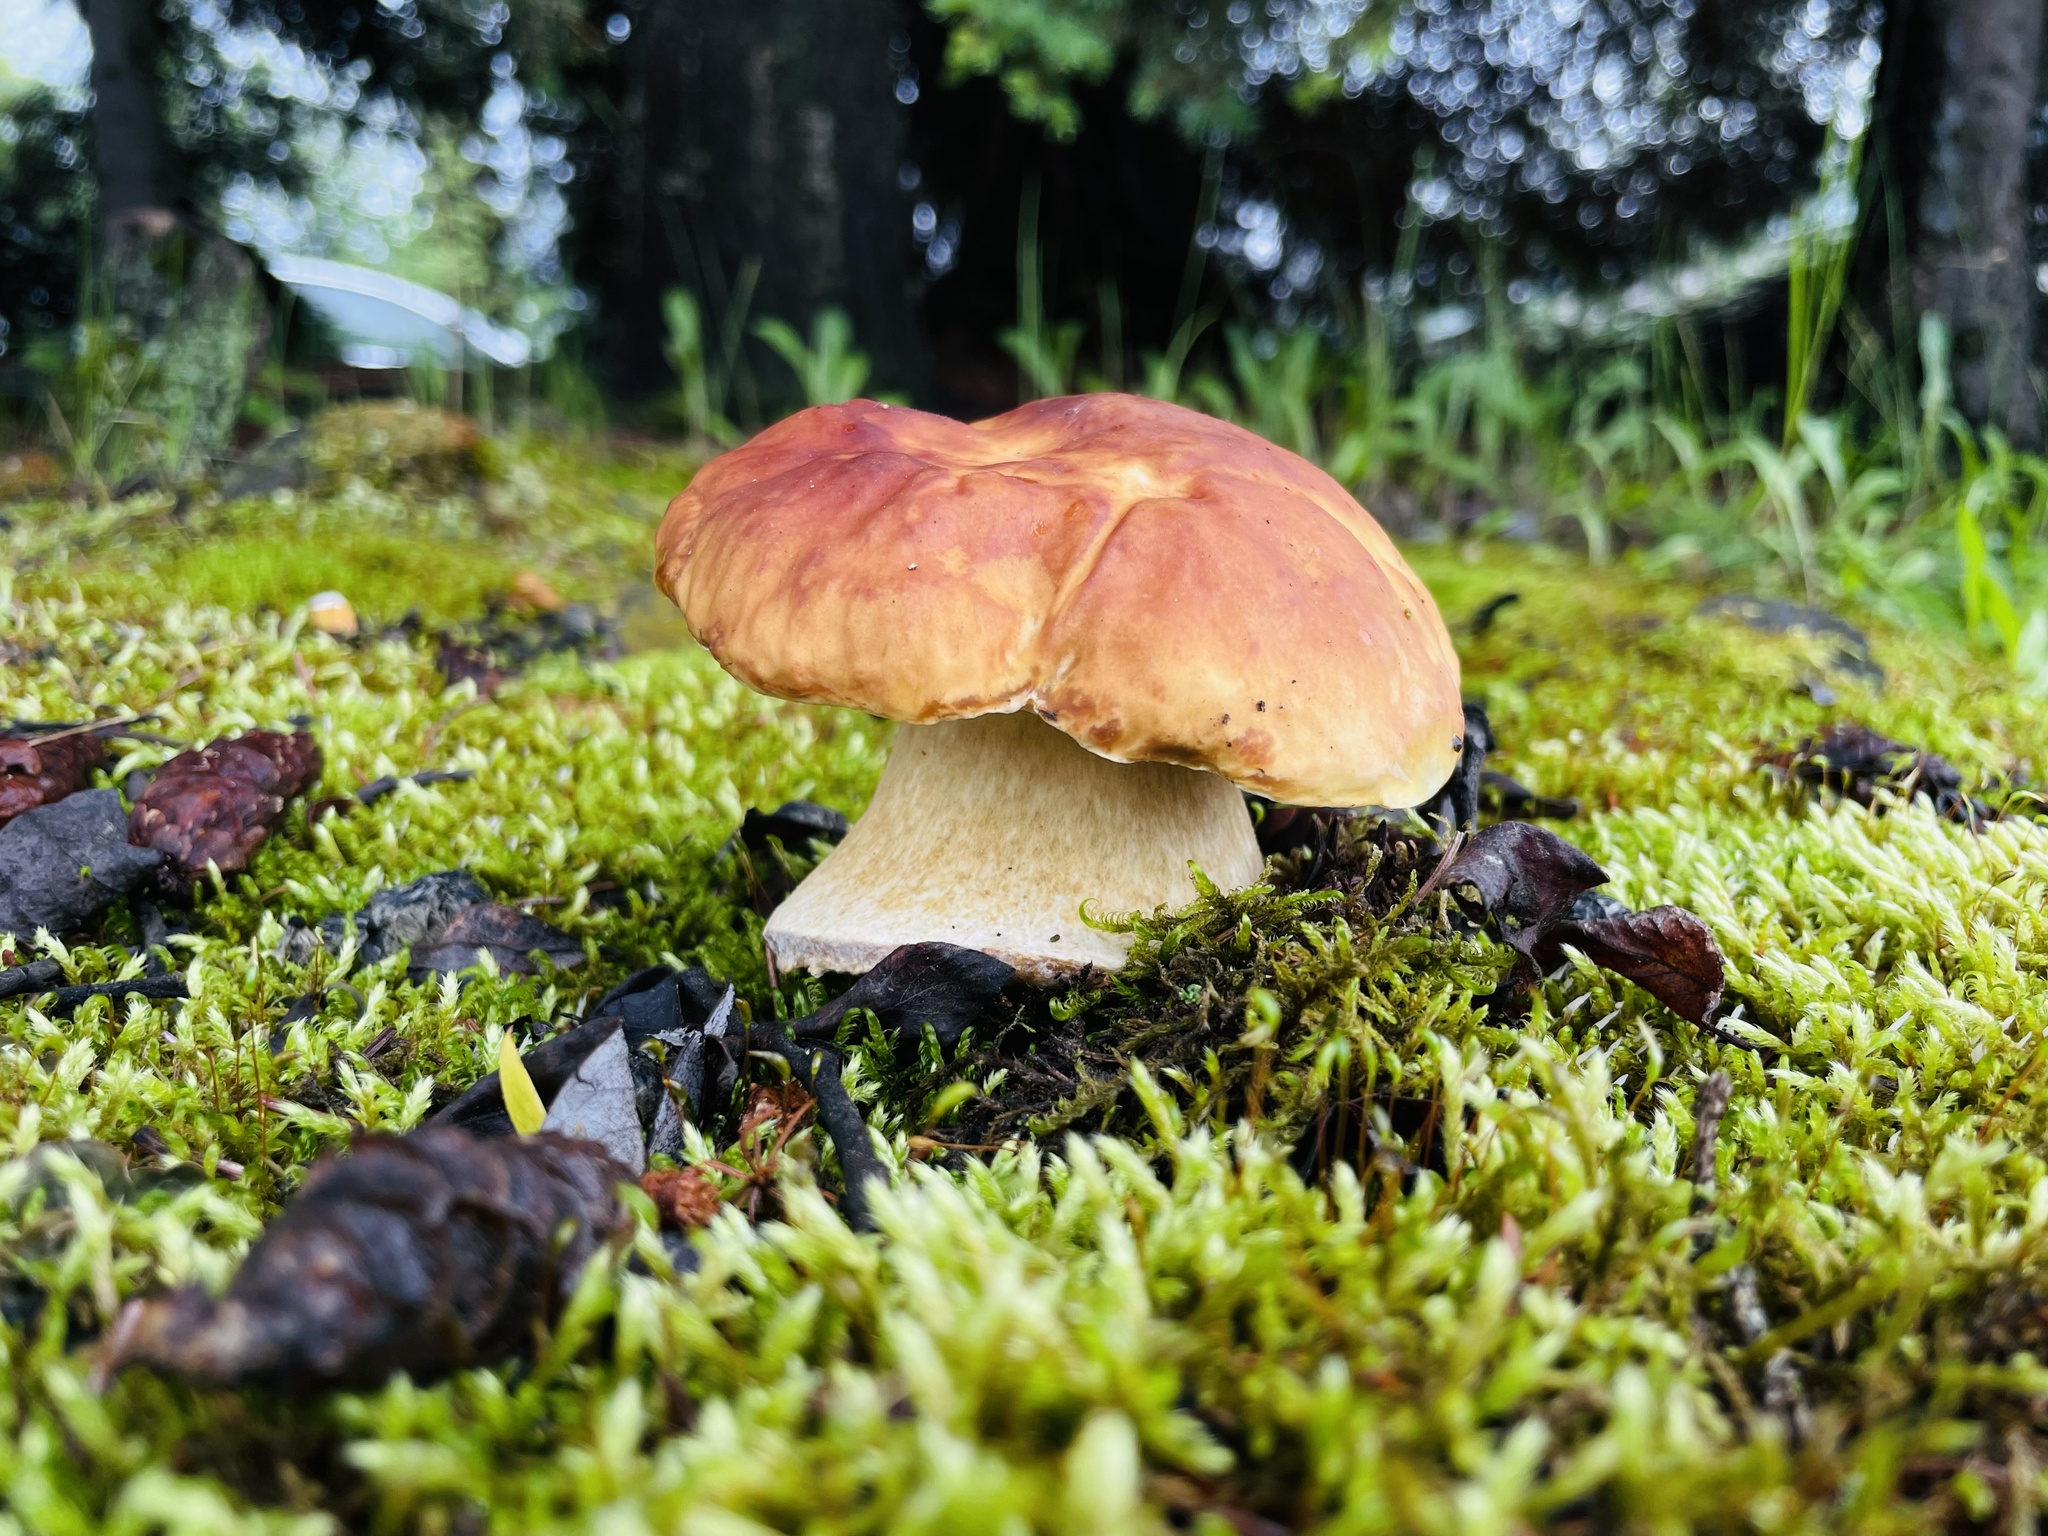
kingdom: Fungi
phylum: Basidiomycota
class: Agaricomycetes
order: Boletales
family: Boletaceae
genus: Boletus
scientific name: Boletus edulis
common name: Cep
